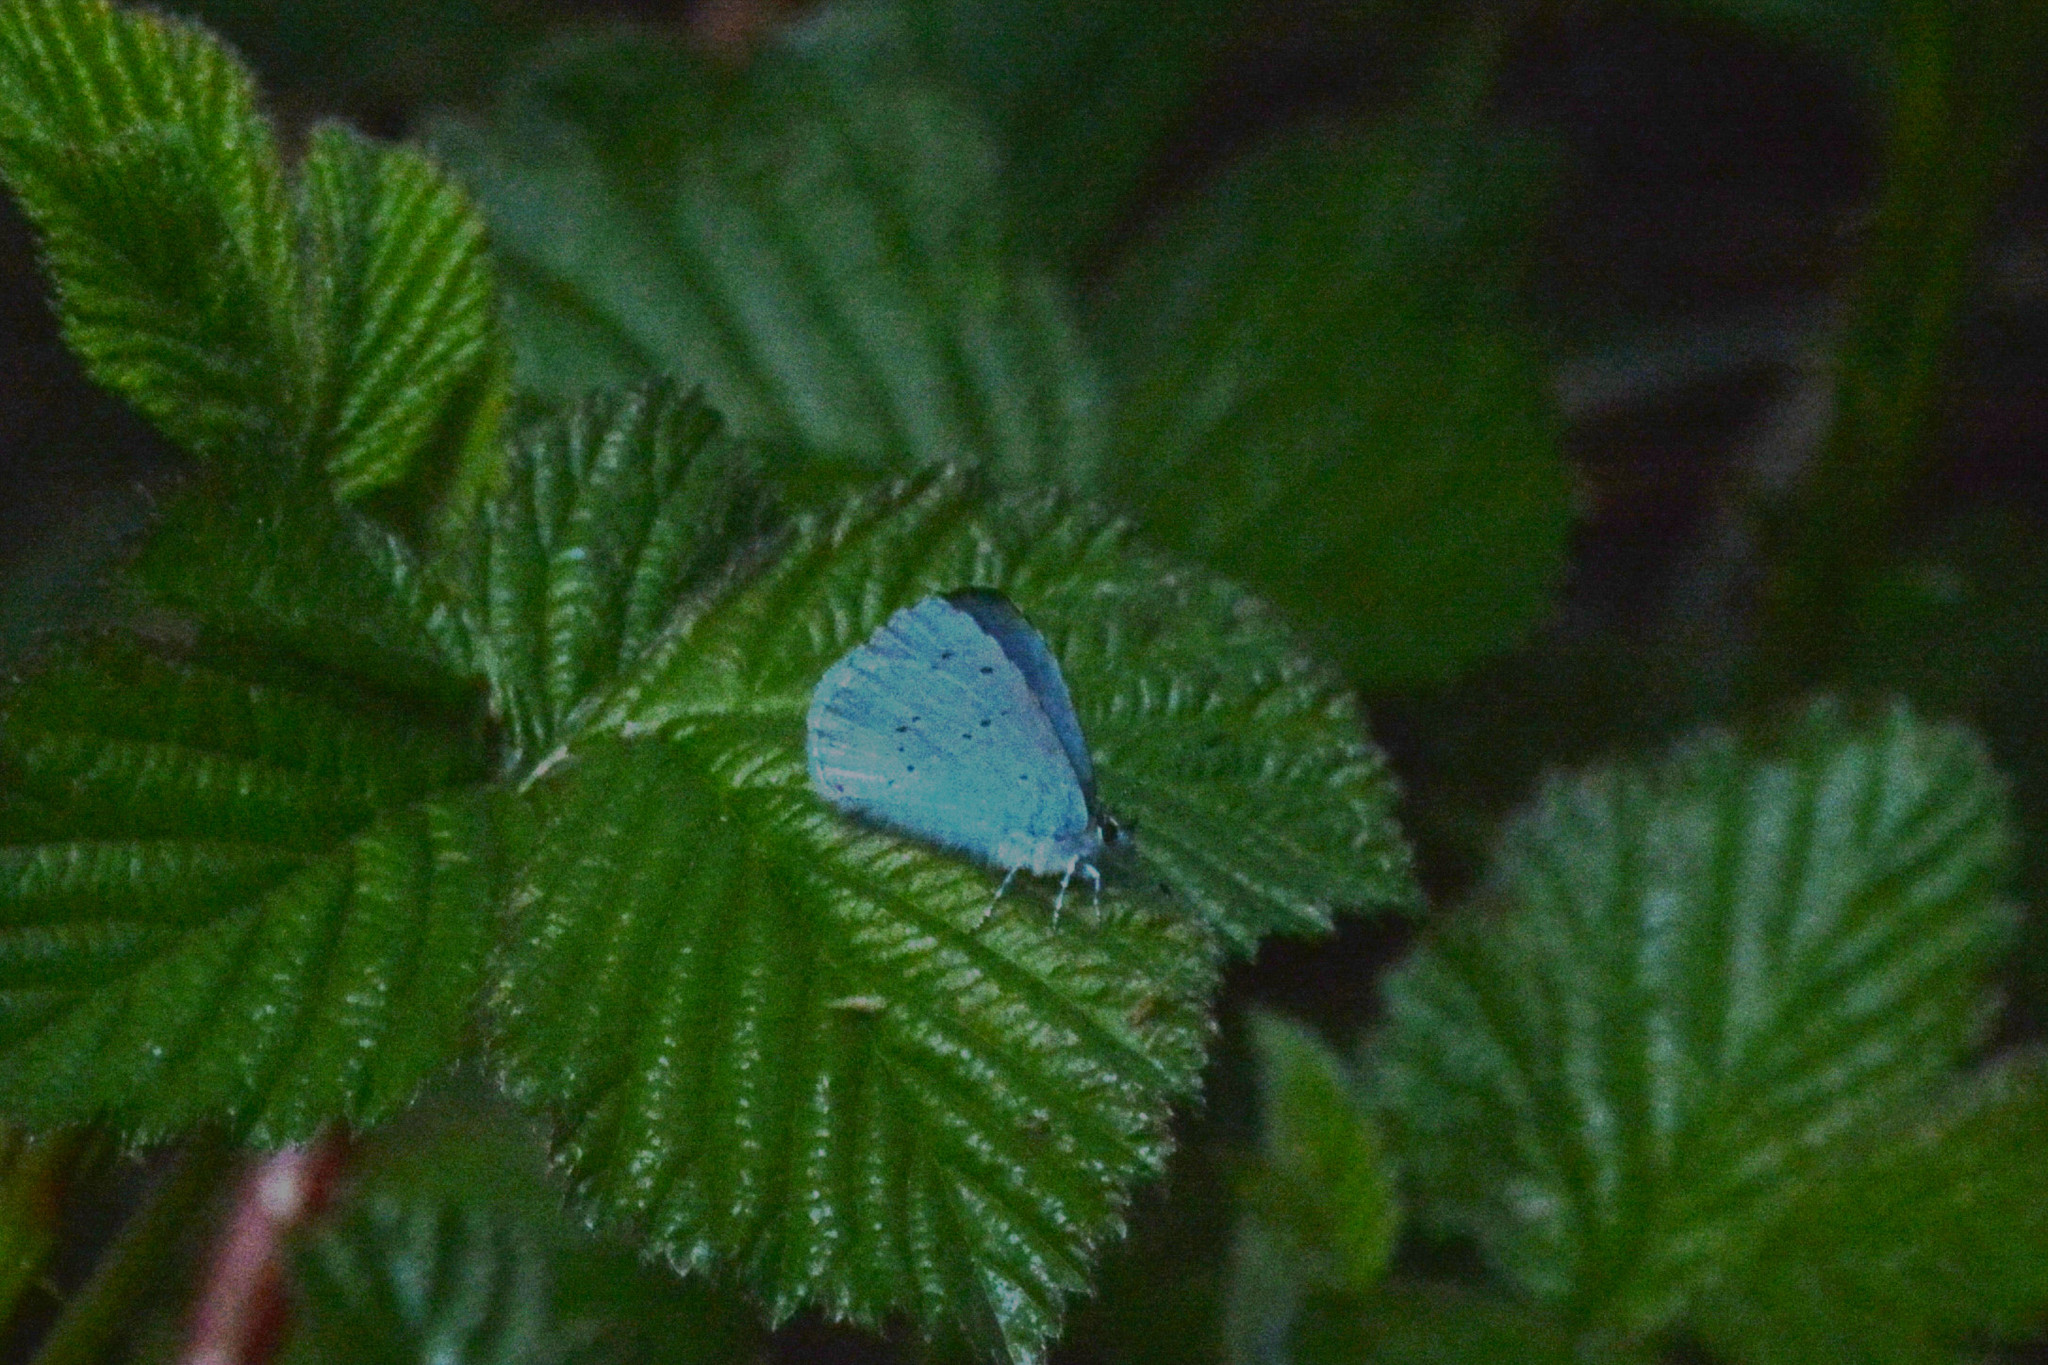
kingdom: Animalia
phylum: Arthropoda
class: Insecta
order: Lepidoptera
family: Lycaenidae
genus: Celastrina
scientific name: Celastrina argiolus
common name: Holly blue
